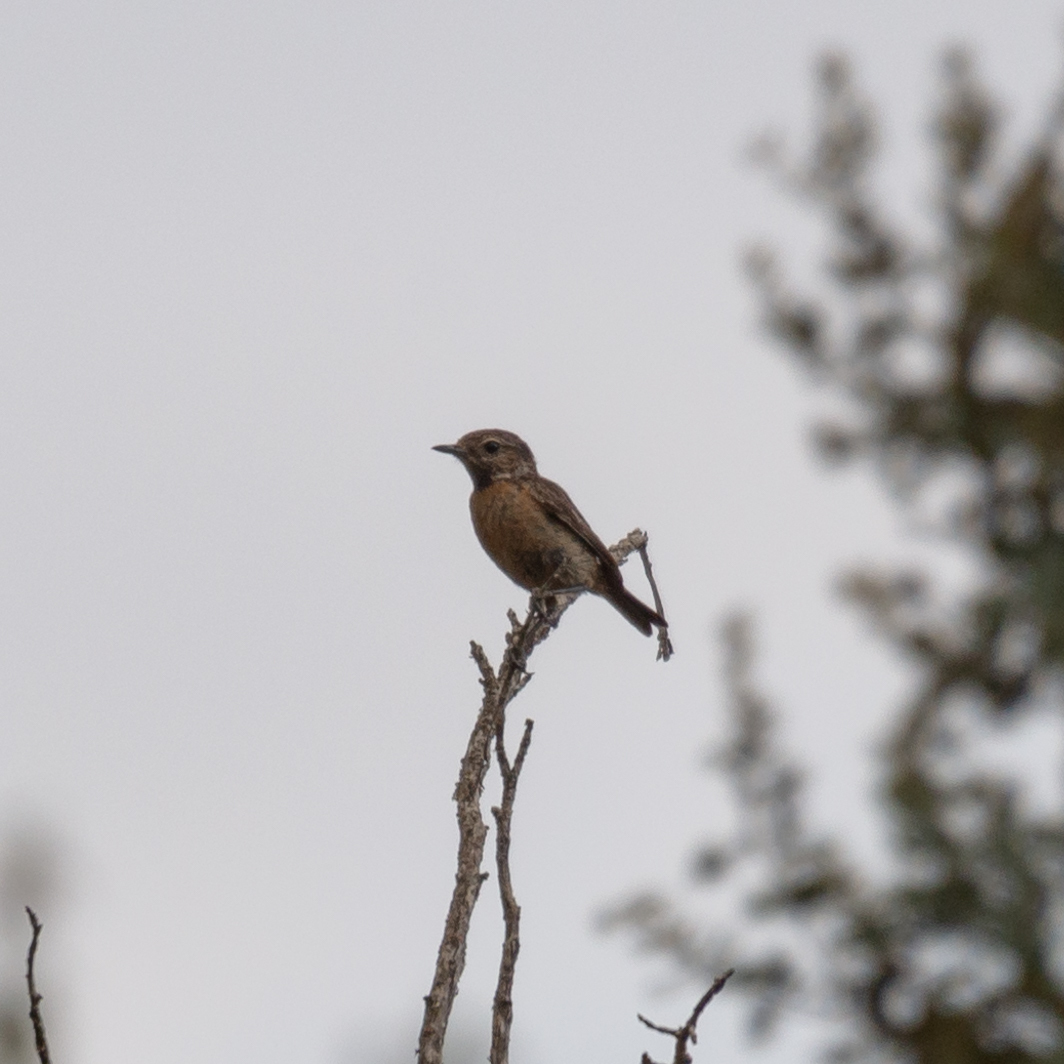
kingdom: Animalia
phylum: Chordata
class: Aves
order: Passeriformes
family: Muscicapidae
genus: Saxicola
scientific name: Saxicola rubicola
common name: European stonechat
